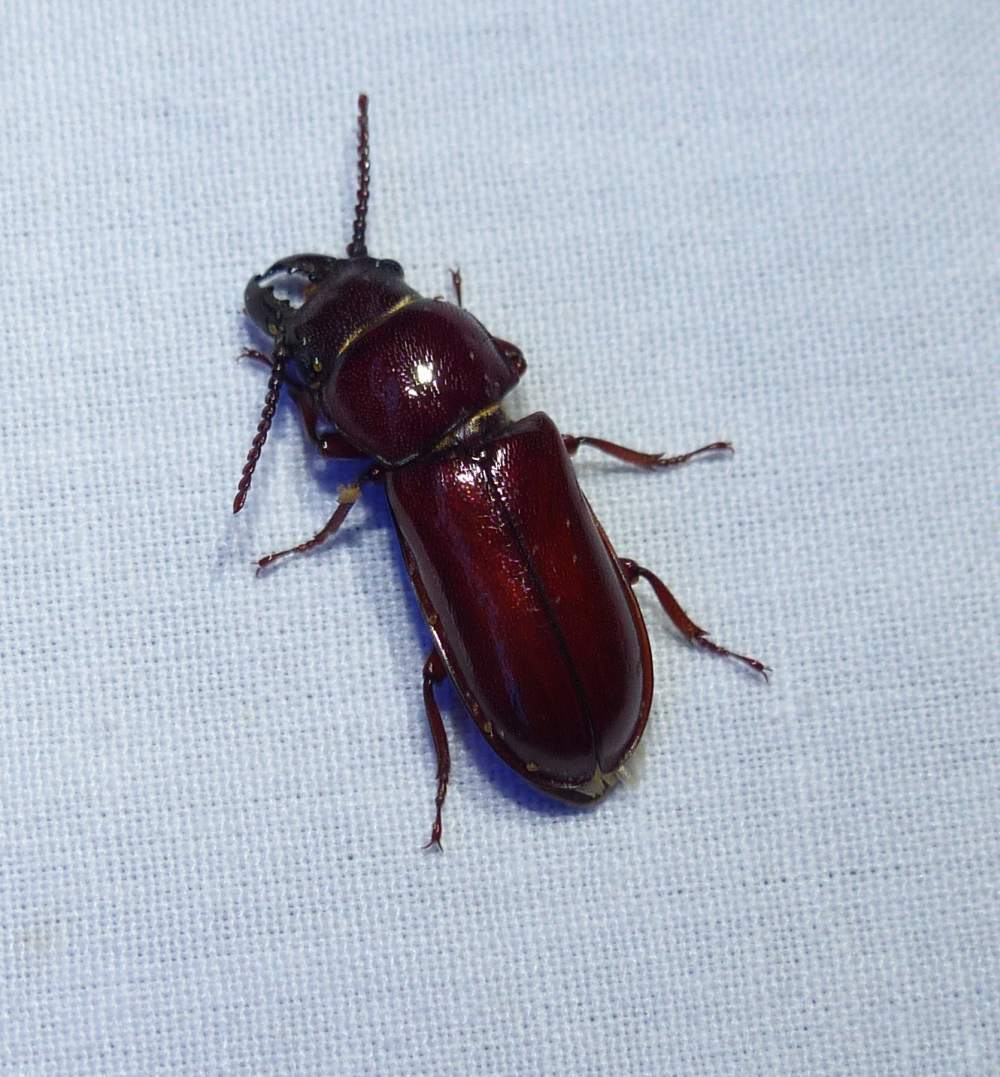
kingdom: Animalia
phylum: Arthropoda
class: Insecta
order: Coleoptera
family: Cerambycidae
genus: Neandra
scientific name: Neandra brunnea
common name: Pole borer
